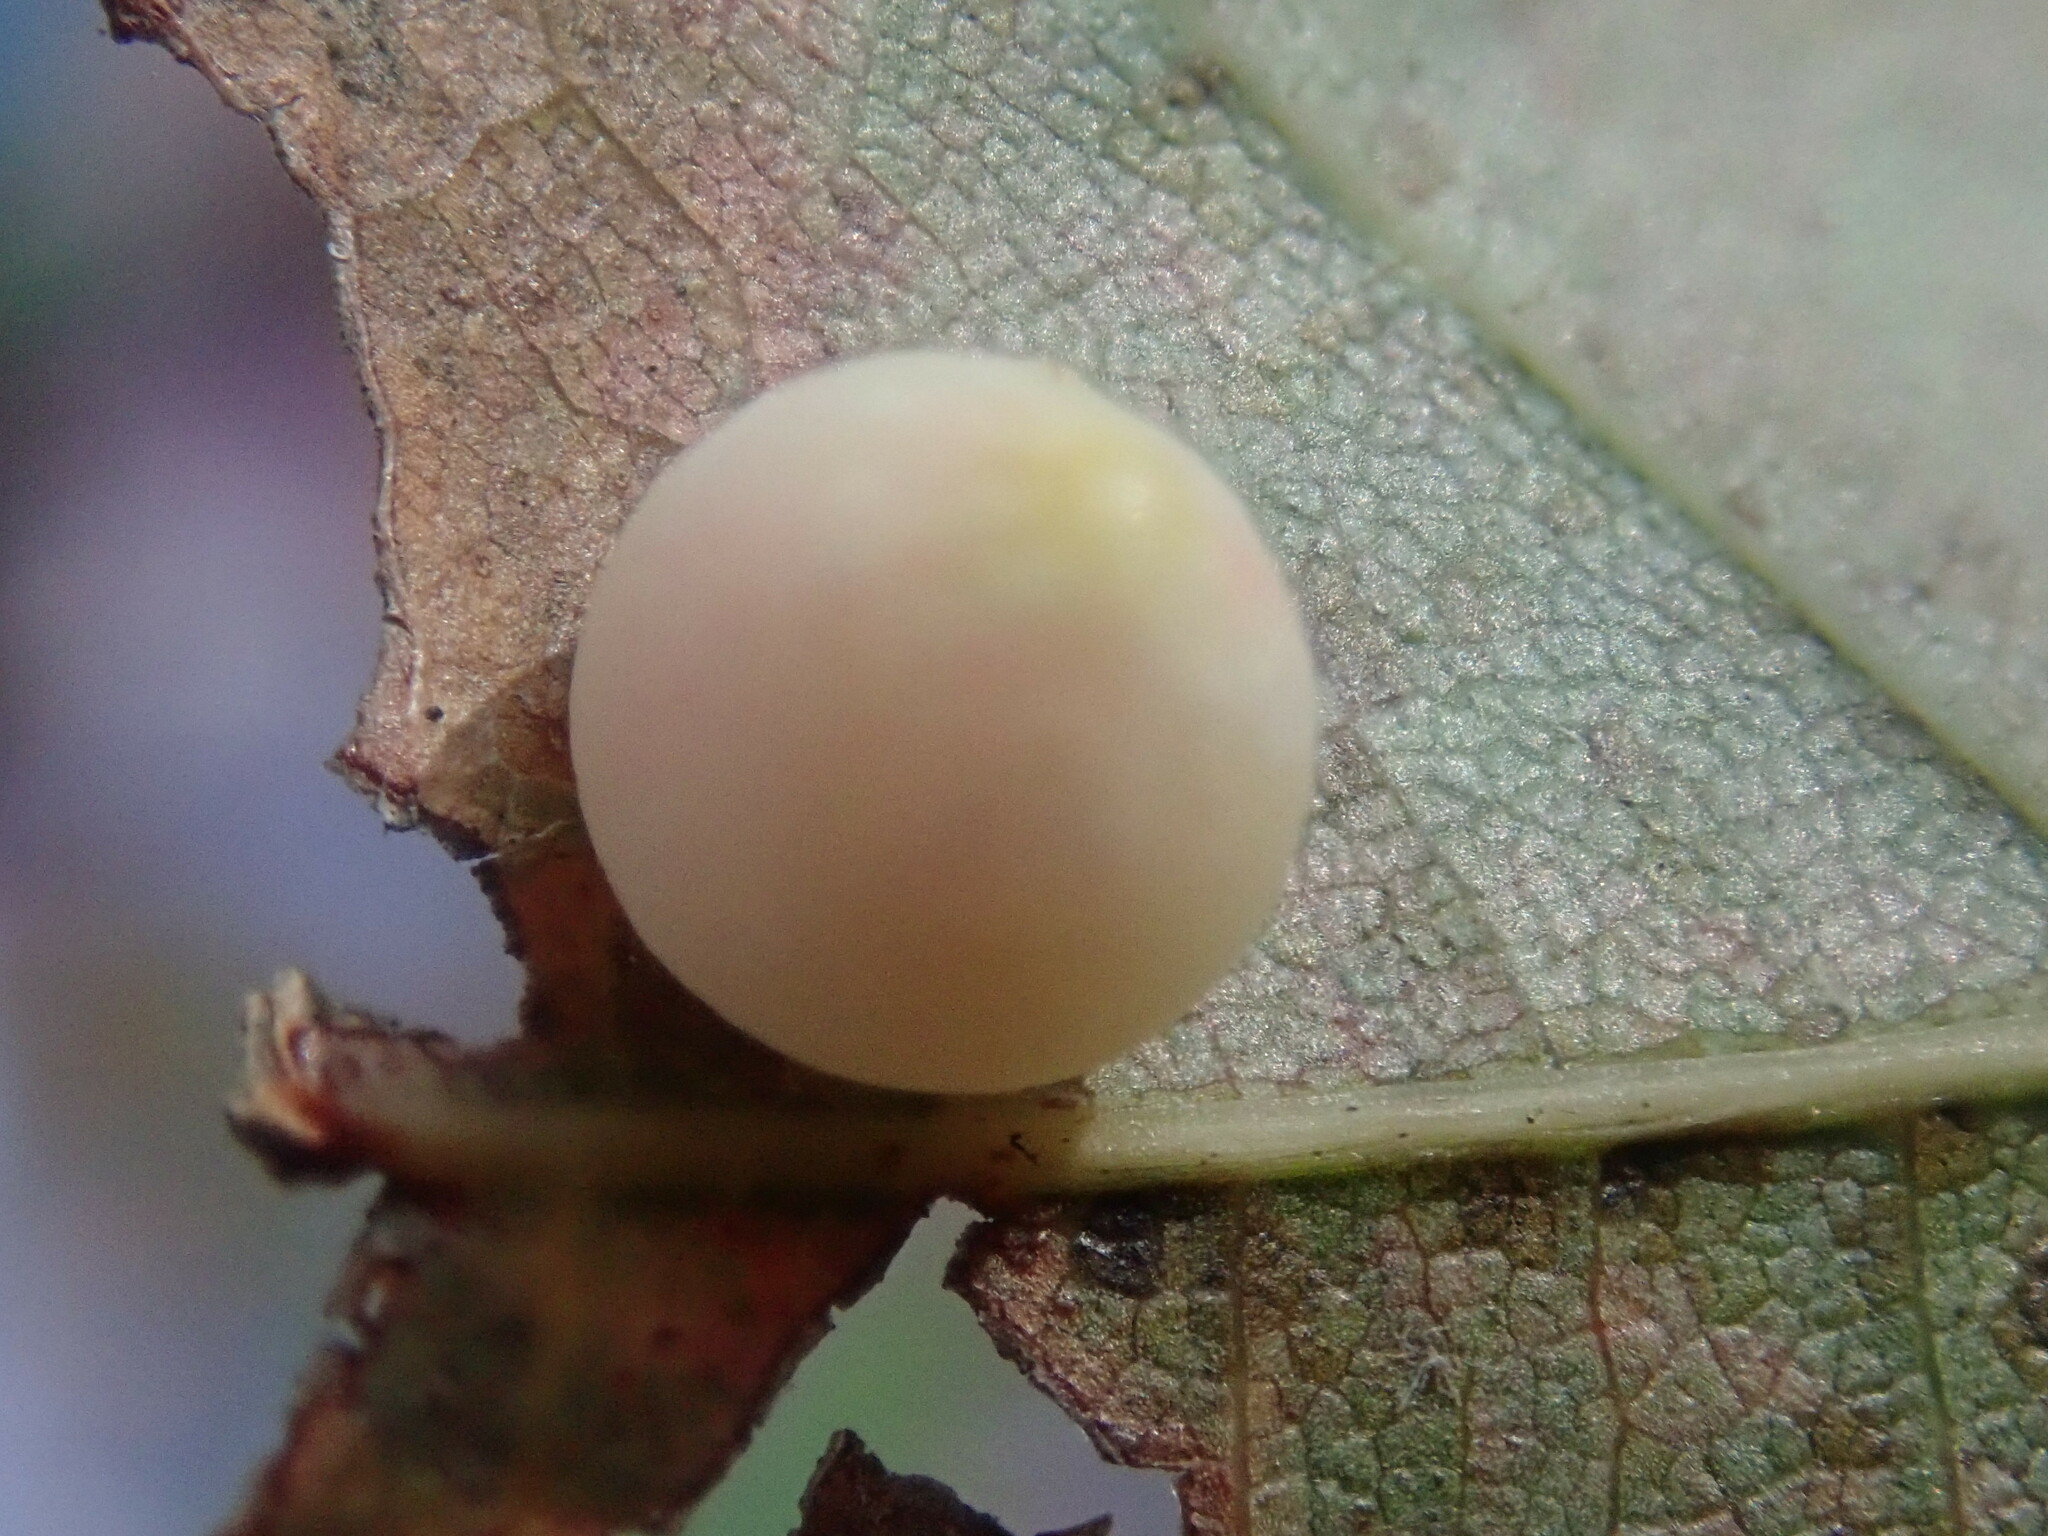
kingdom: Animalia
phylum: Arthropoda
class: Insecta
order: Hymenoptera
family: Cynipidae
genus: Zopheroteras
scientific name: Zopheroteras
